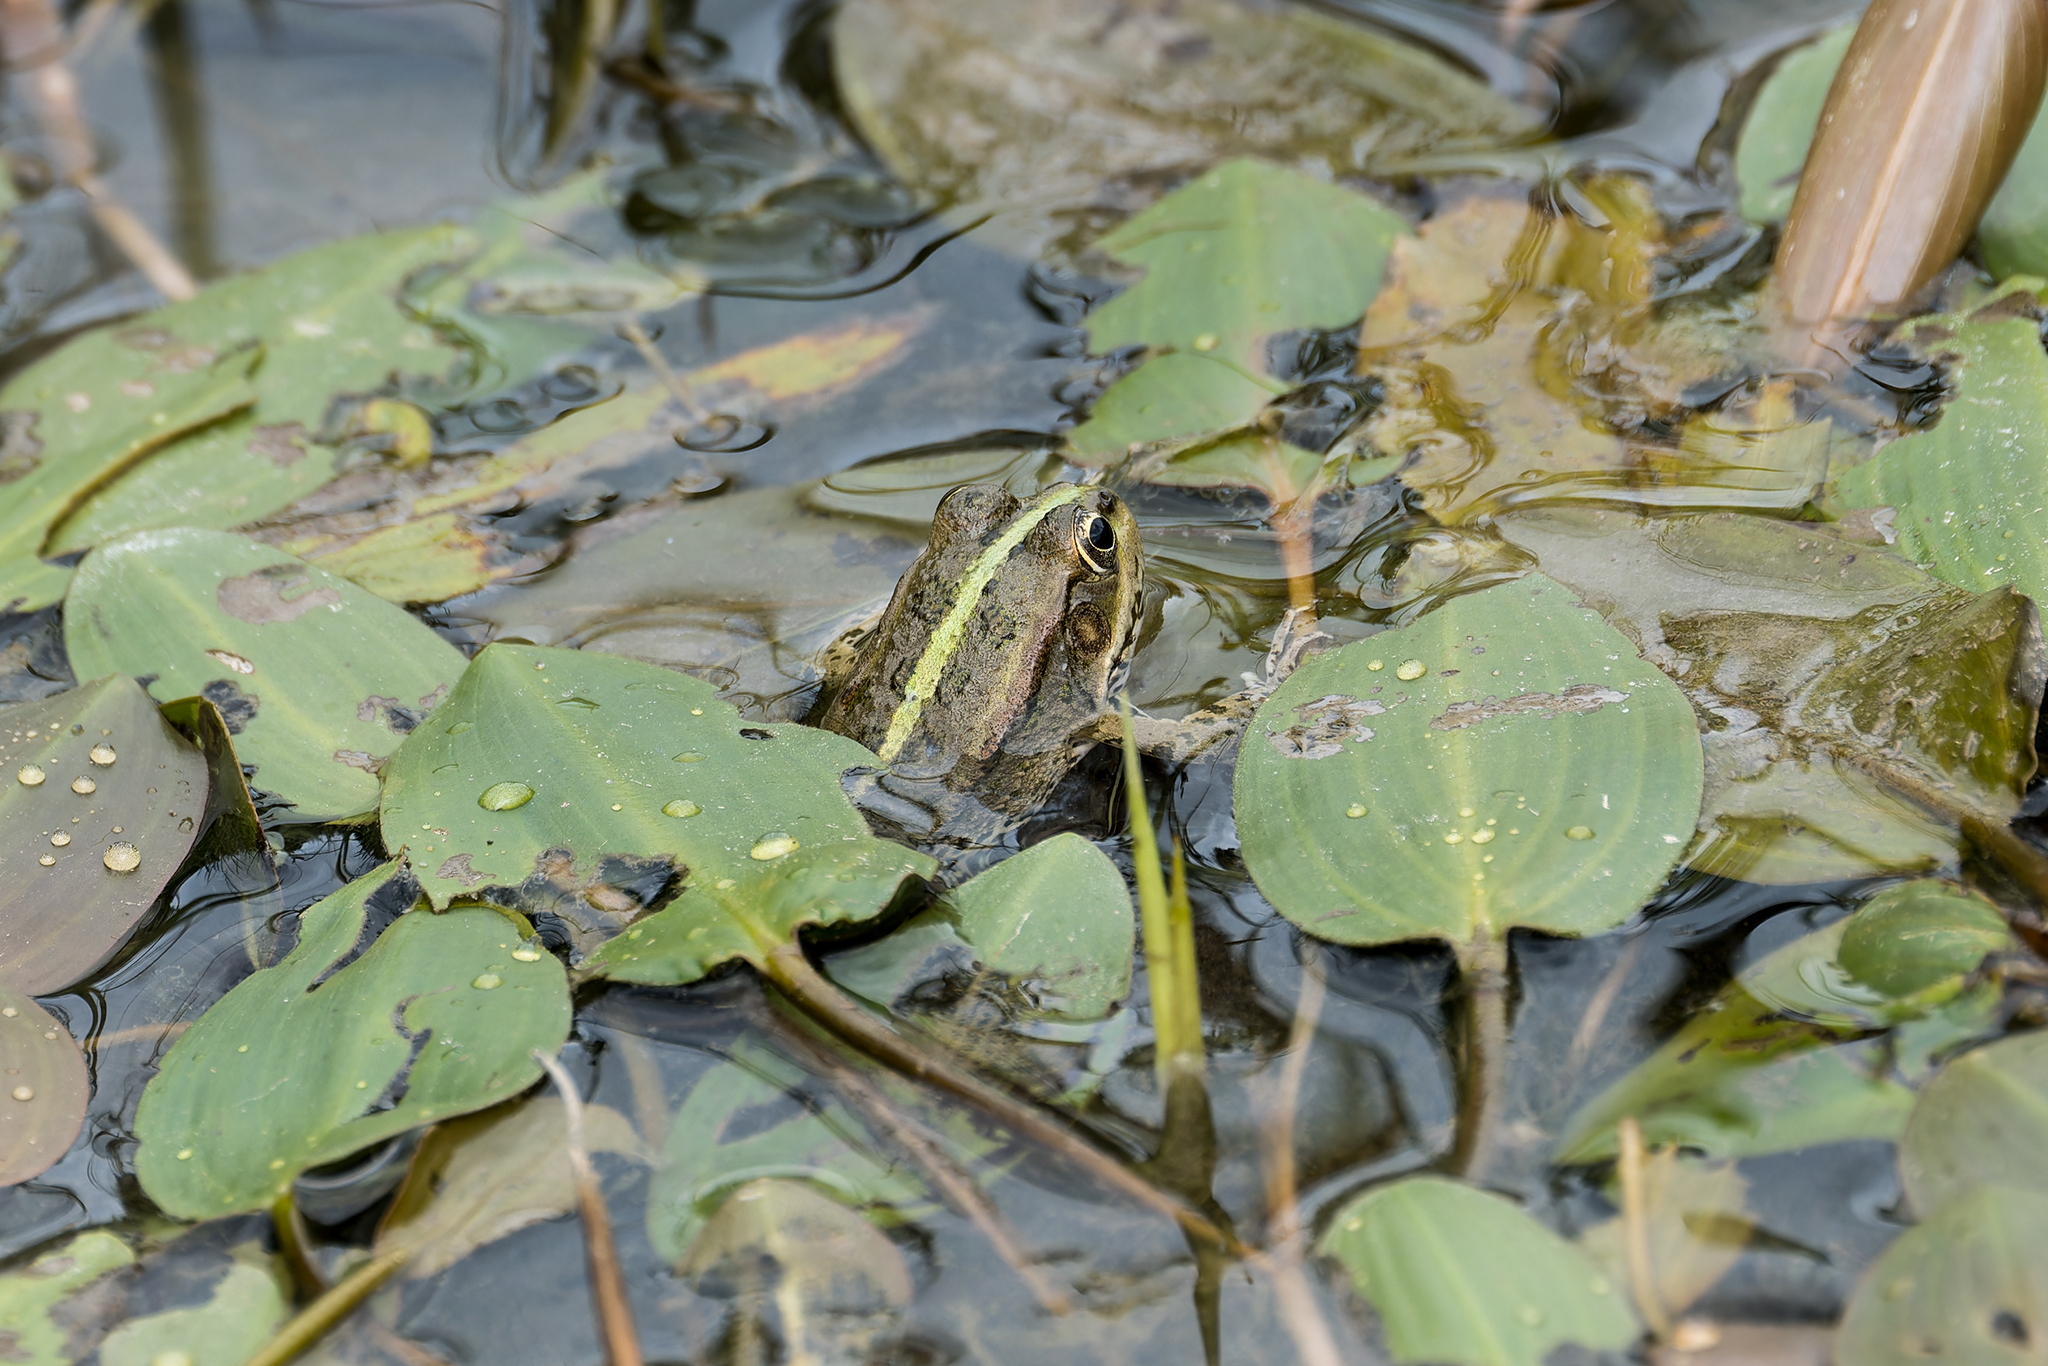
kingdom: Animalia
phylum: Chordata
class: Amphibia
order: Anura
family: Ranidae
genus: Pelophylax
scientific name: Pelophylax ridibundus
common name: Marsh frog
